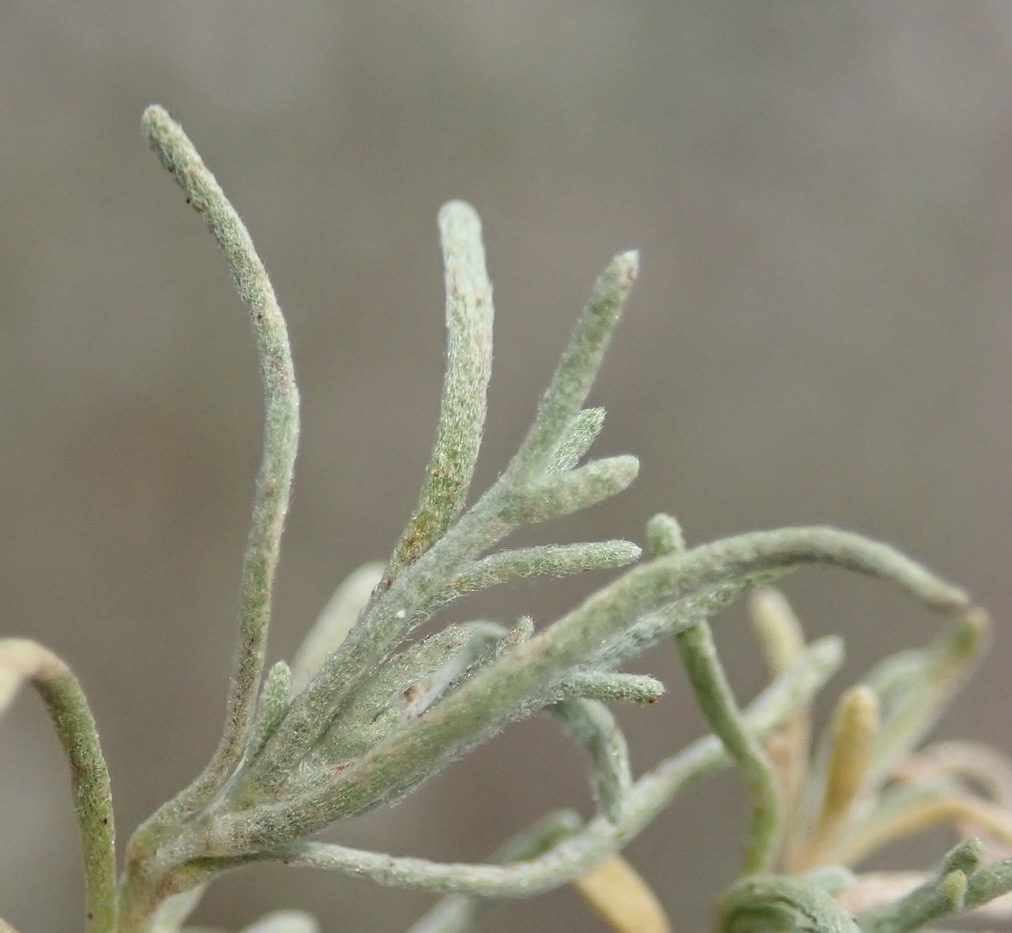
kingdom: Plantae
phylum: Tracheophyta
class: Magnoliopsida
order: Asterales
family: Asteraceae
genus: Eriocephalus
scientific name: Eriocephalus africanus
